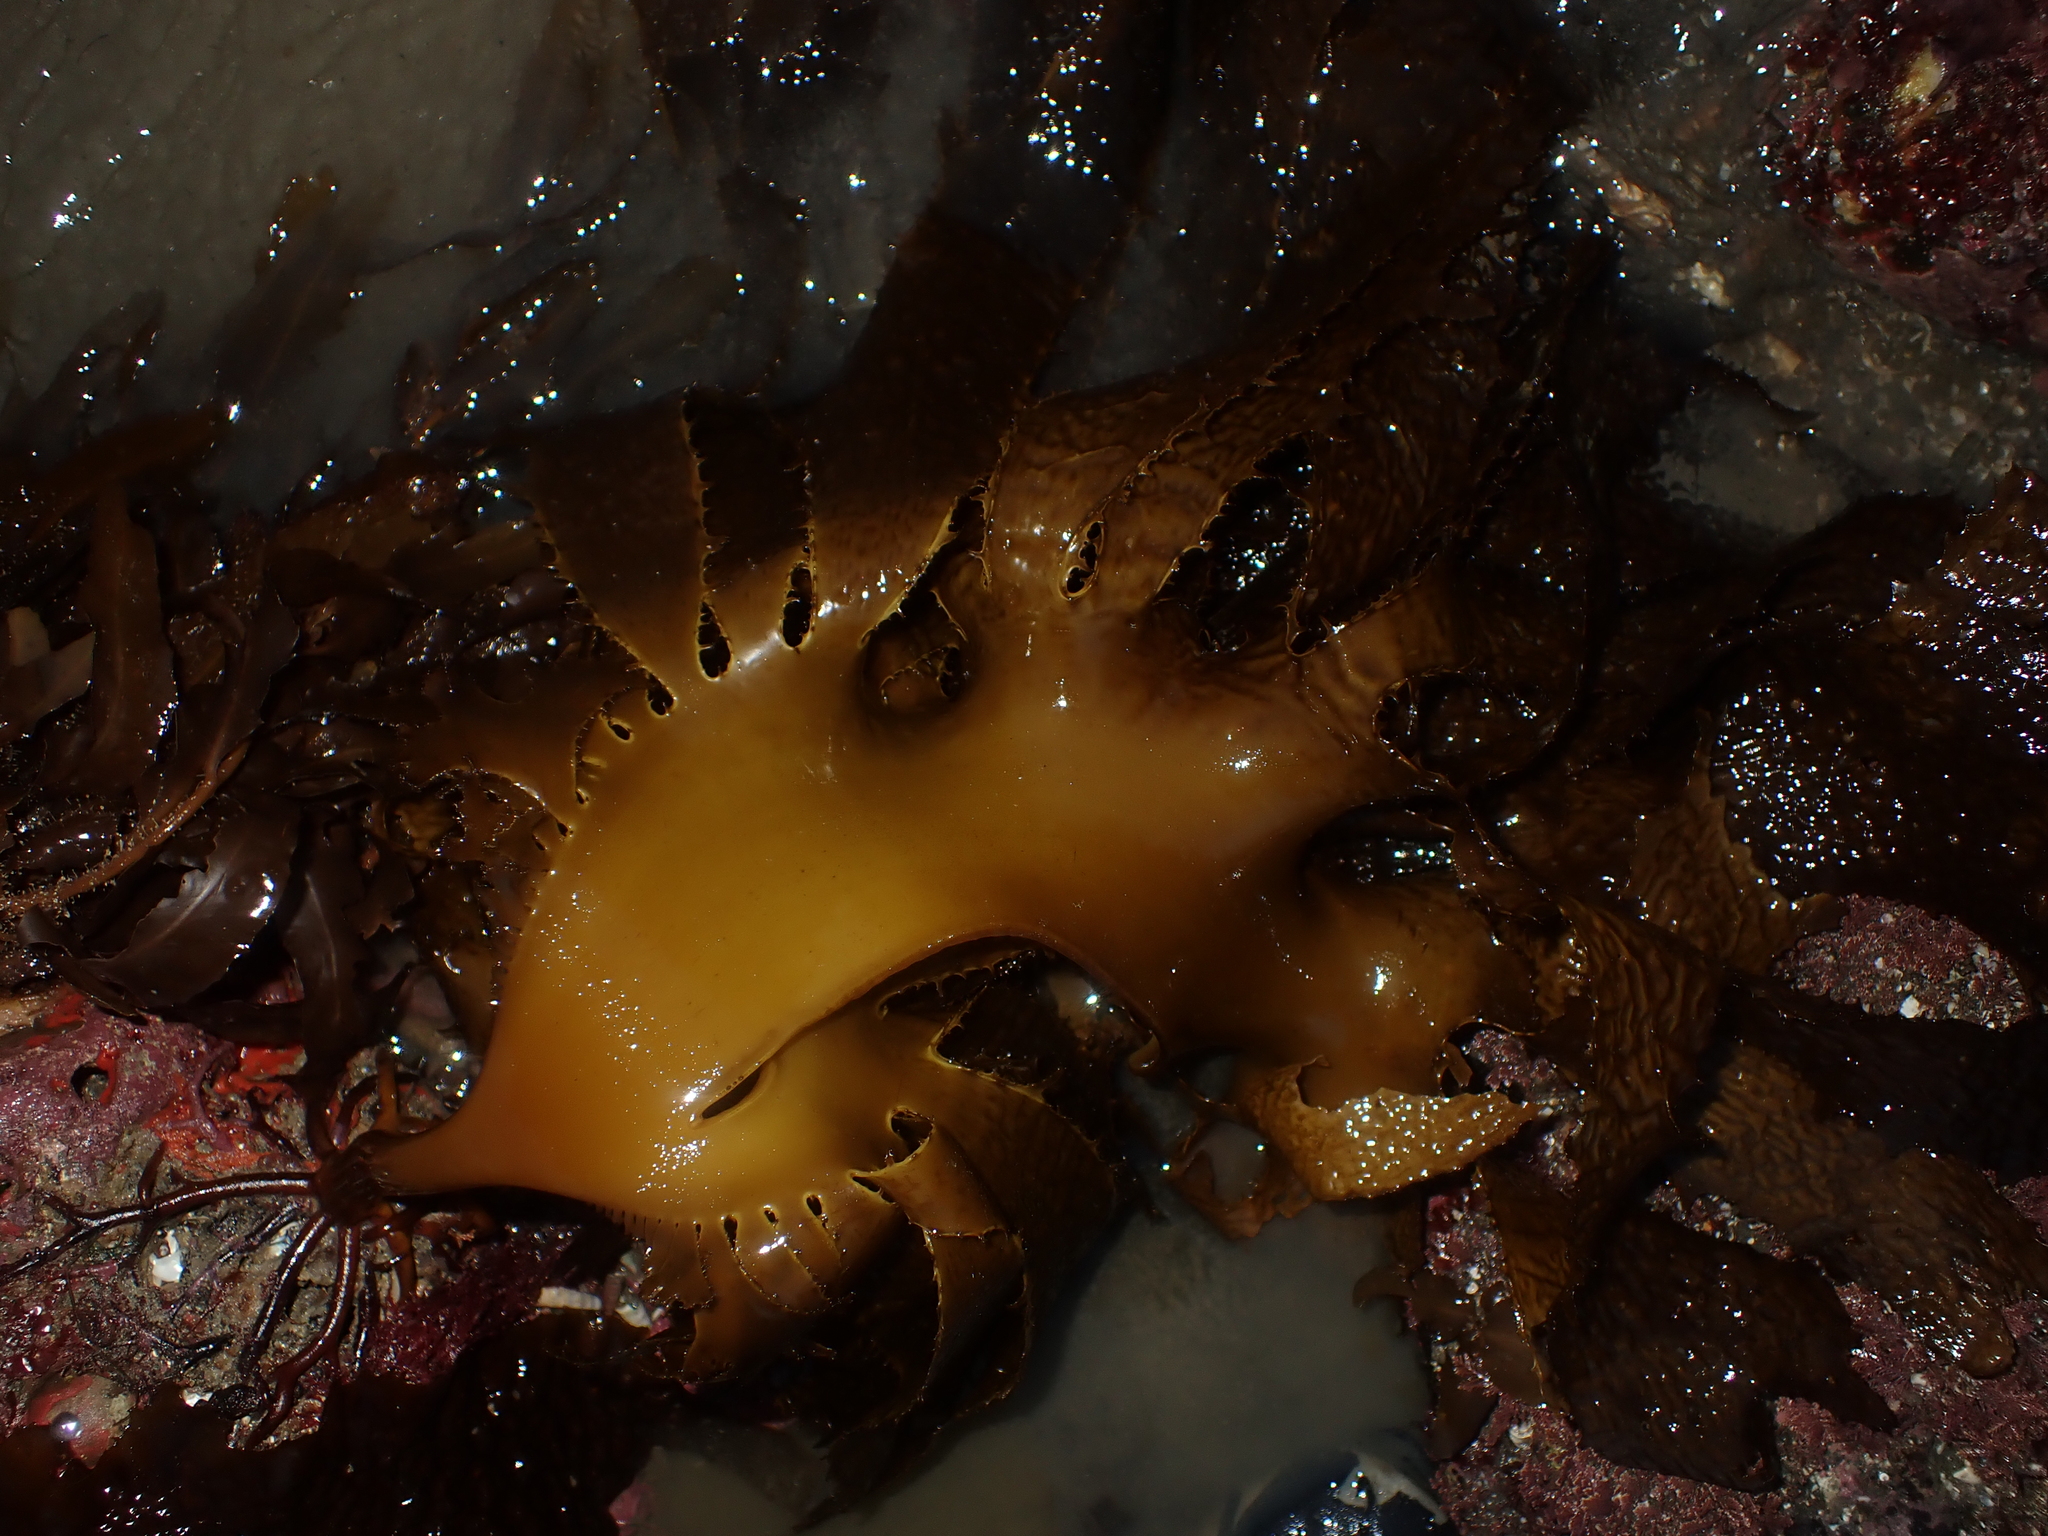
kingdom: Chromista
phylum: Ochrophyta
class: Phaeophyceae
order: Laminariales
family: Lessoniaceae
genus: Ecklonia
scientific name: Ecklonia radiata
